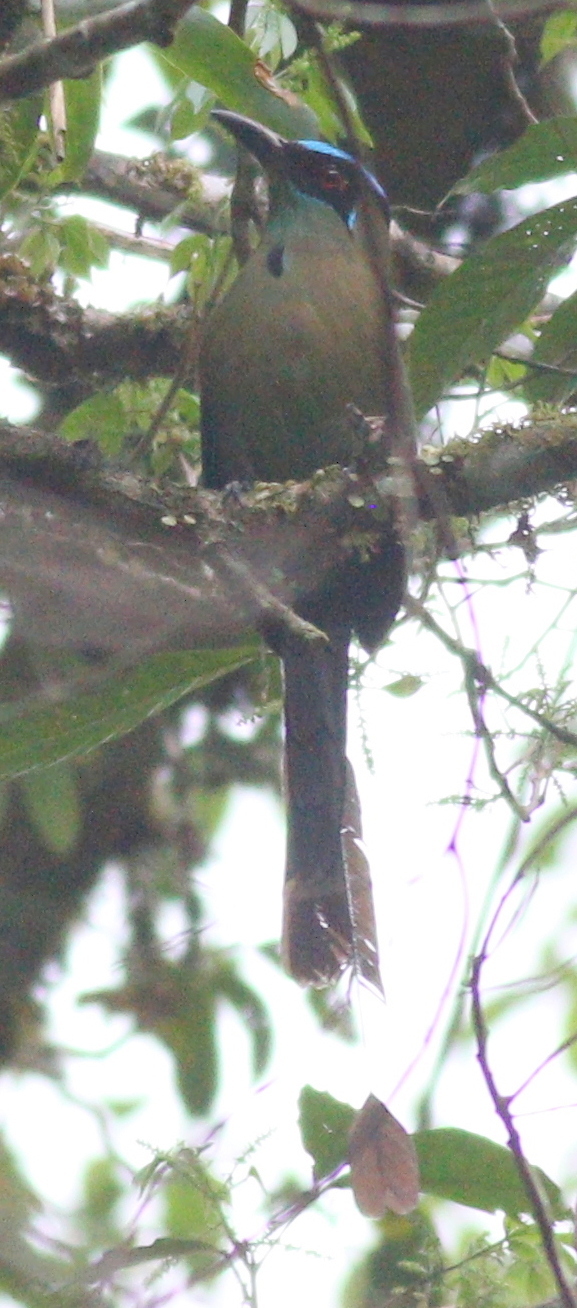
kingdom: Animalia
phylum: Chordata
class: Aves
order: Coraciiformes
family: Momotidae
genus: Momotus
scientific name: Momotus aequatorialis
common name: Andean motmot
